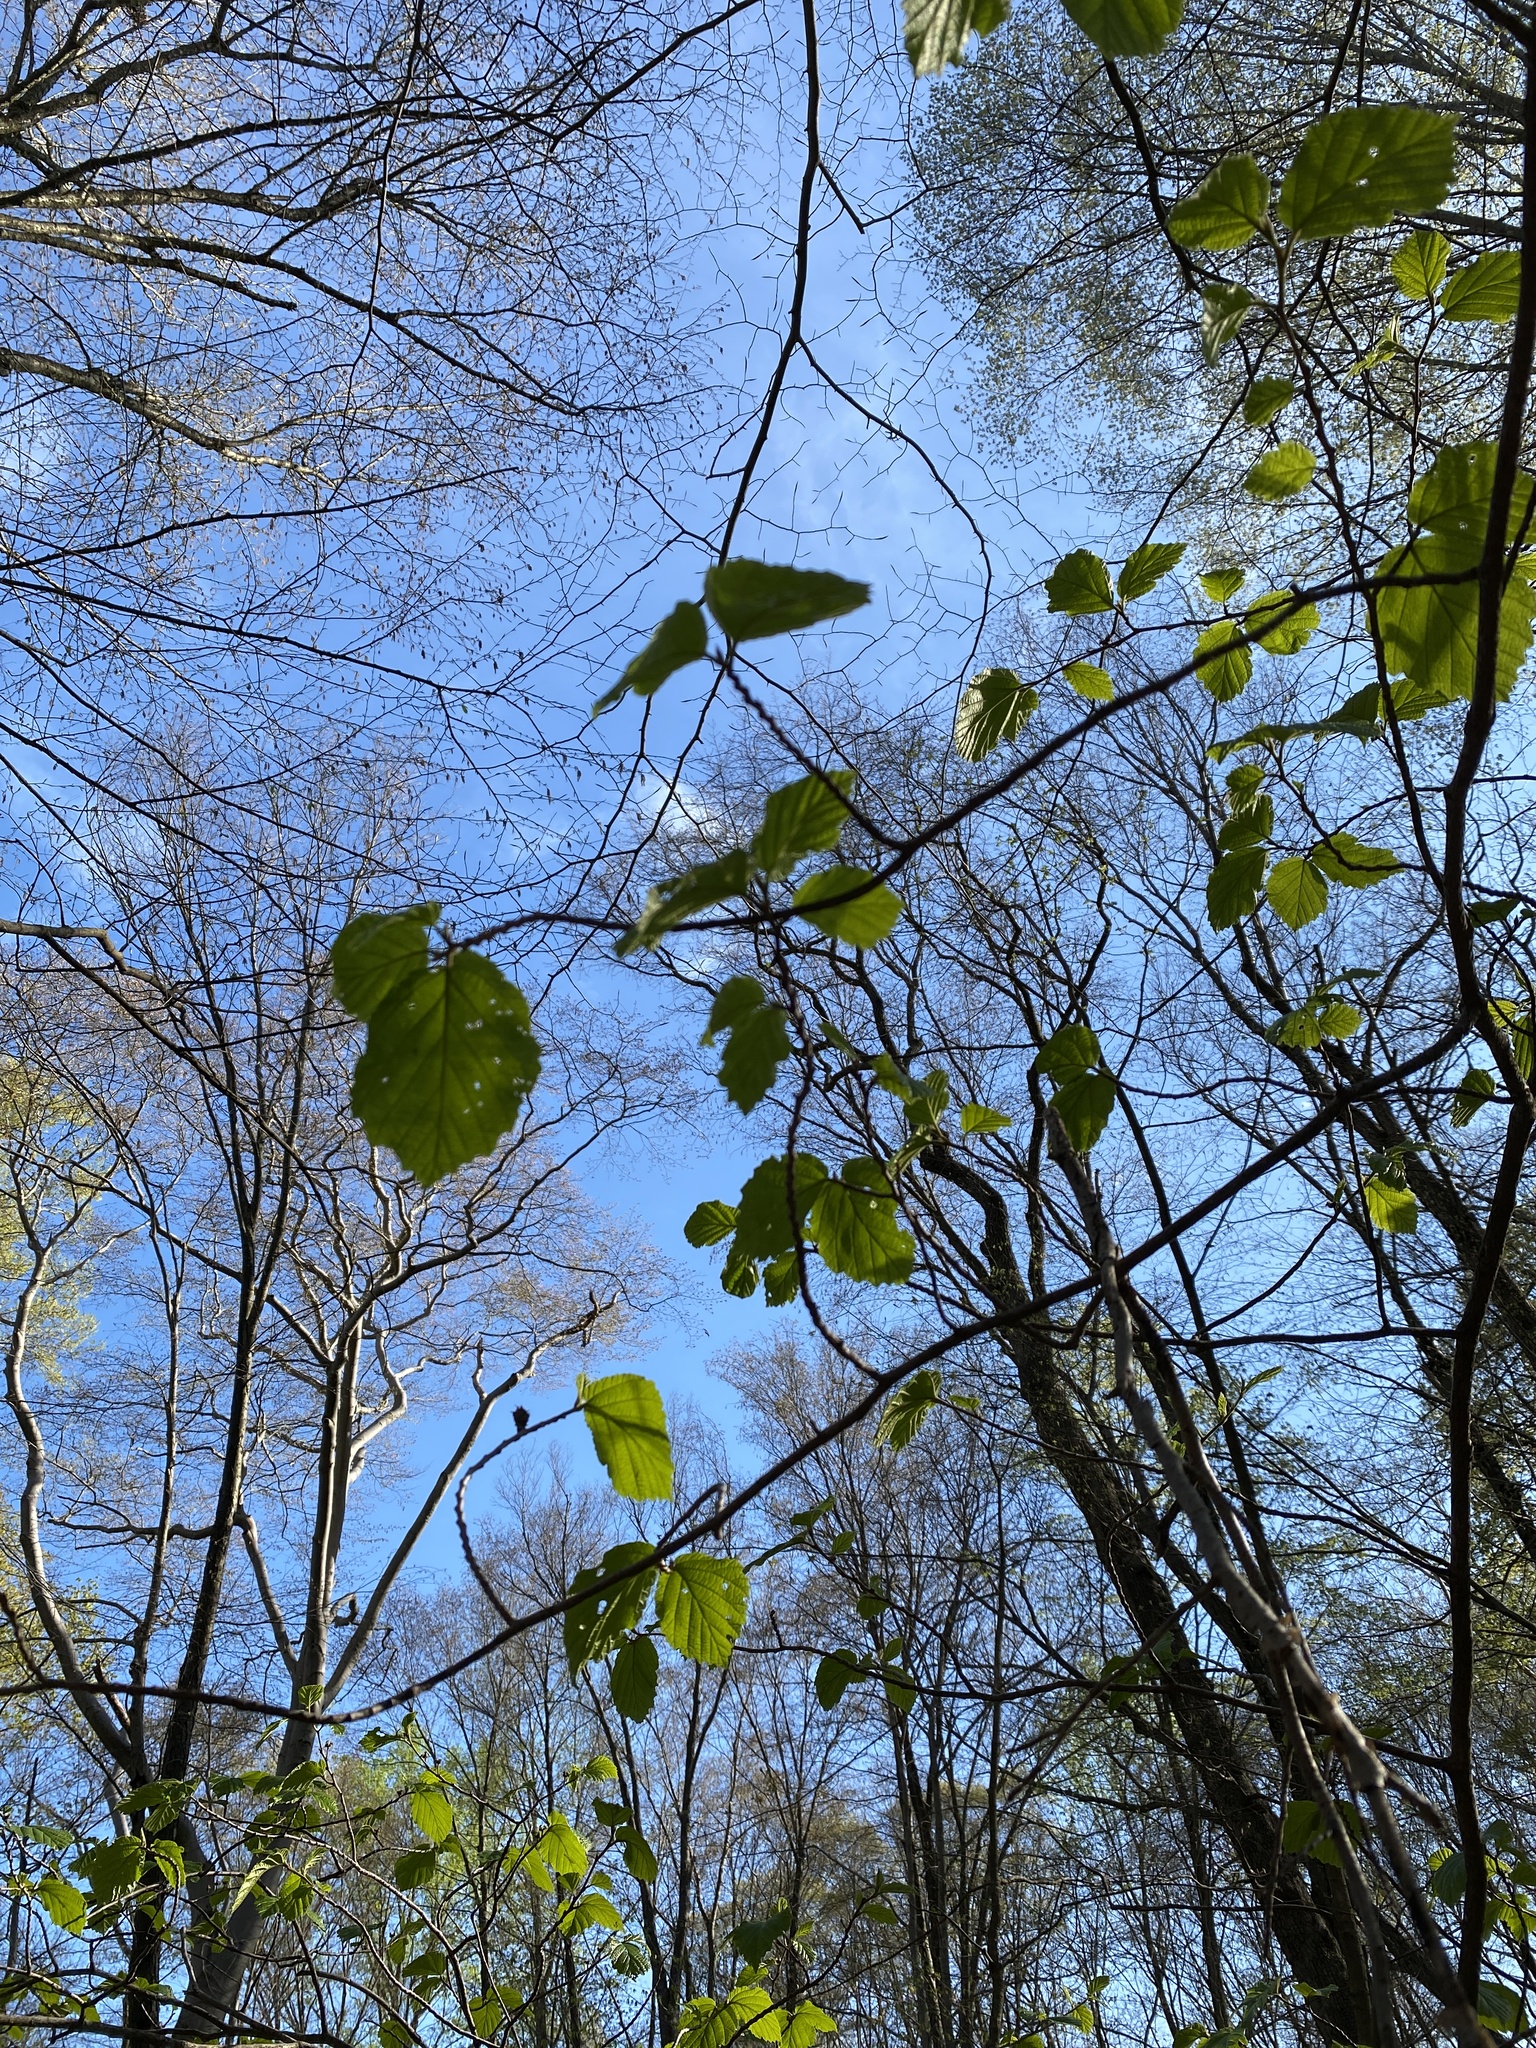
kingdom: Plantae
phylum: Tracheophyta
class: Magnoliopsida
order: Saxifragales
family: Hamamelidaceae
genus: Hamamelis
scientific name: Hamamelis virginiana
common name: Witch-hazel
